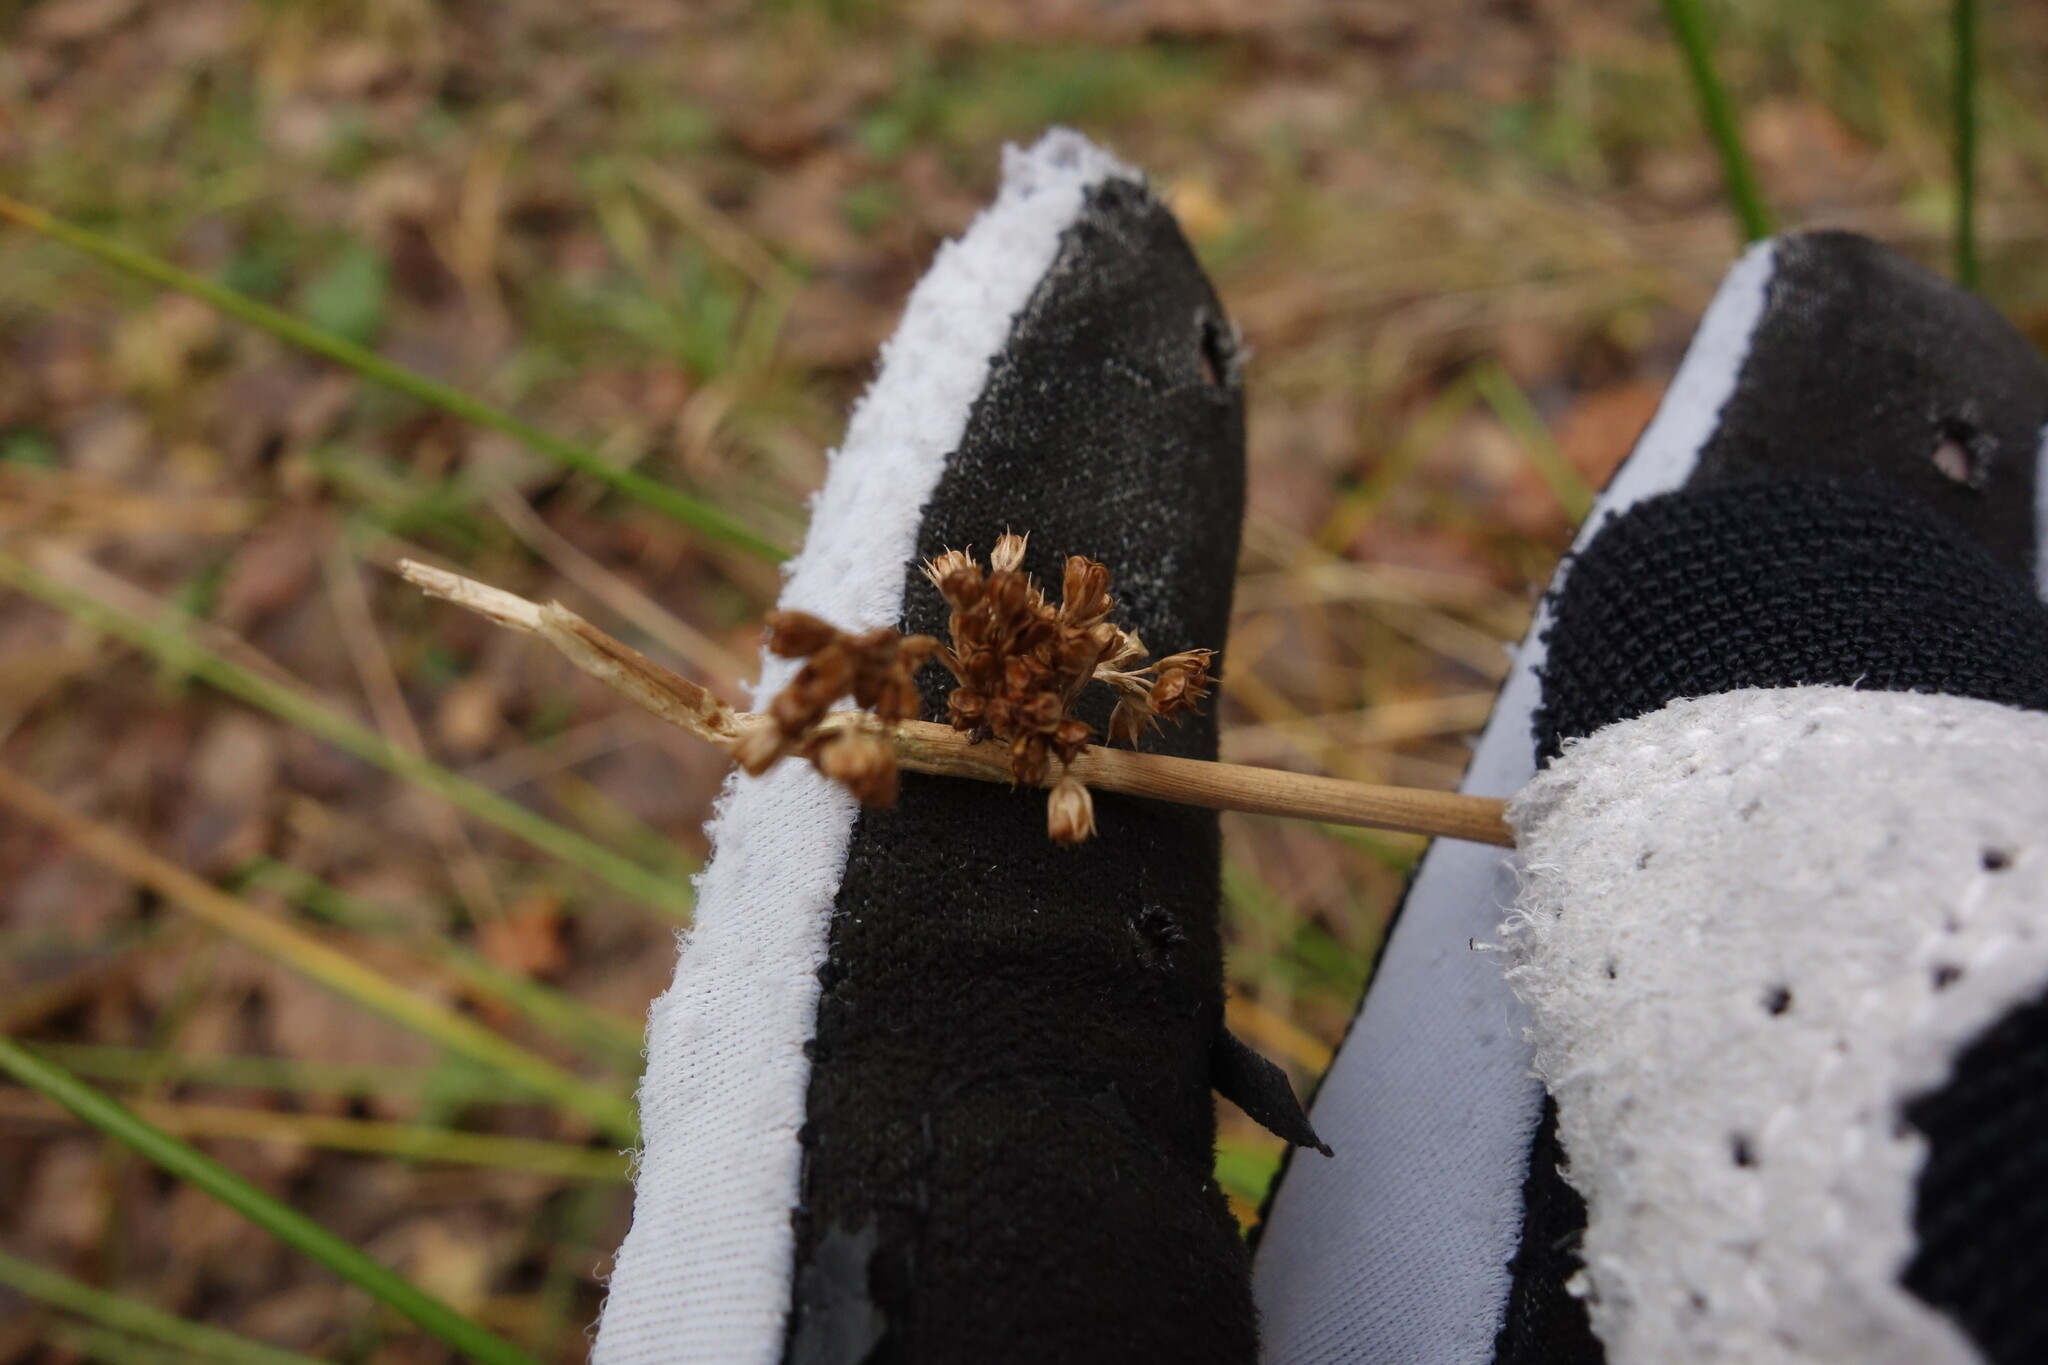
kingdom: Plantae
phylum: Tracheophyta
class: Liliopsida
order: Poales
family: Juncaceae
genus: Juncus
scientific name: Juncus effusus
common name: Soft rush
